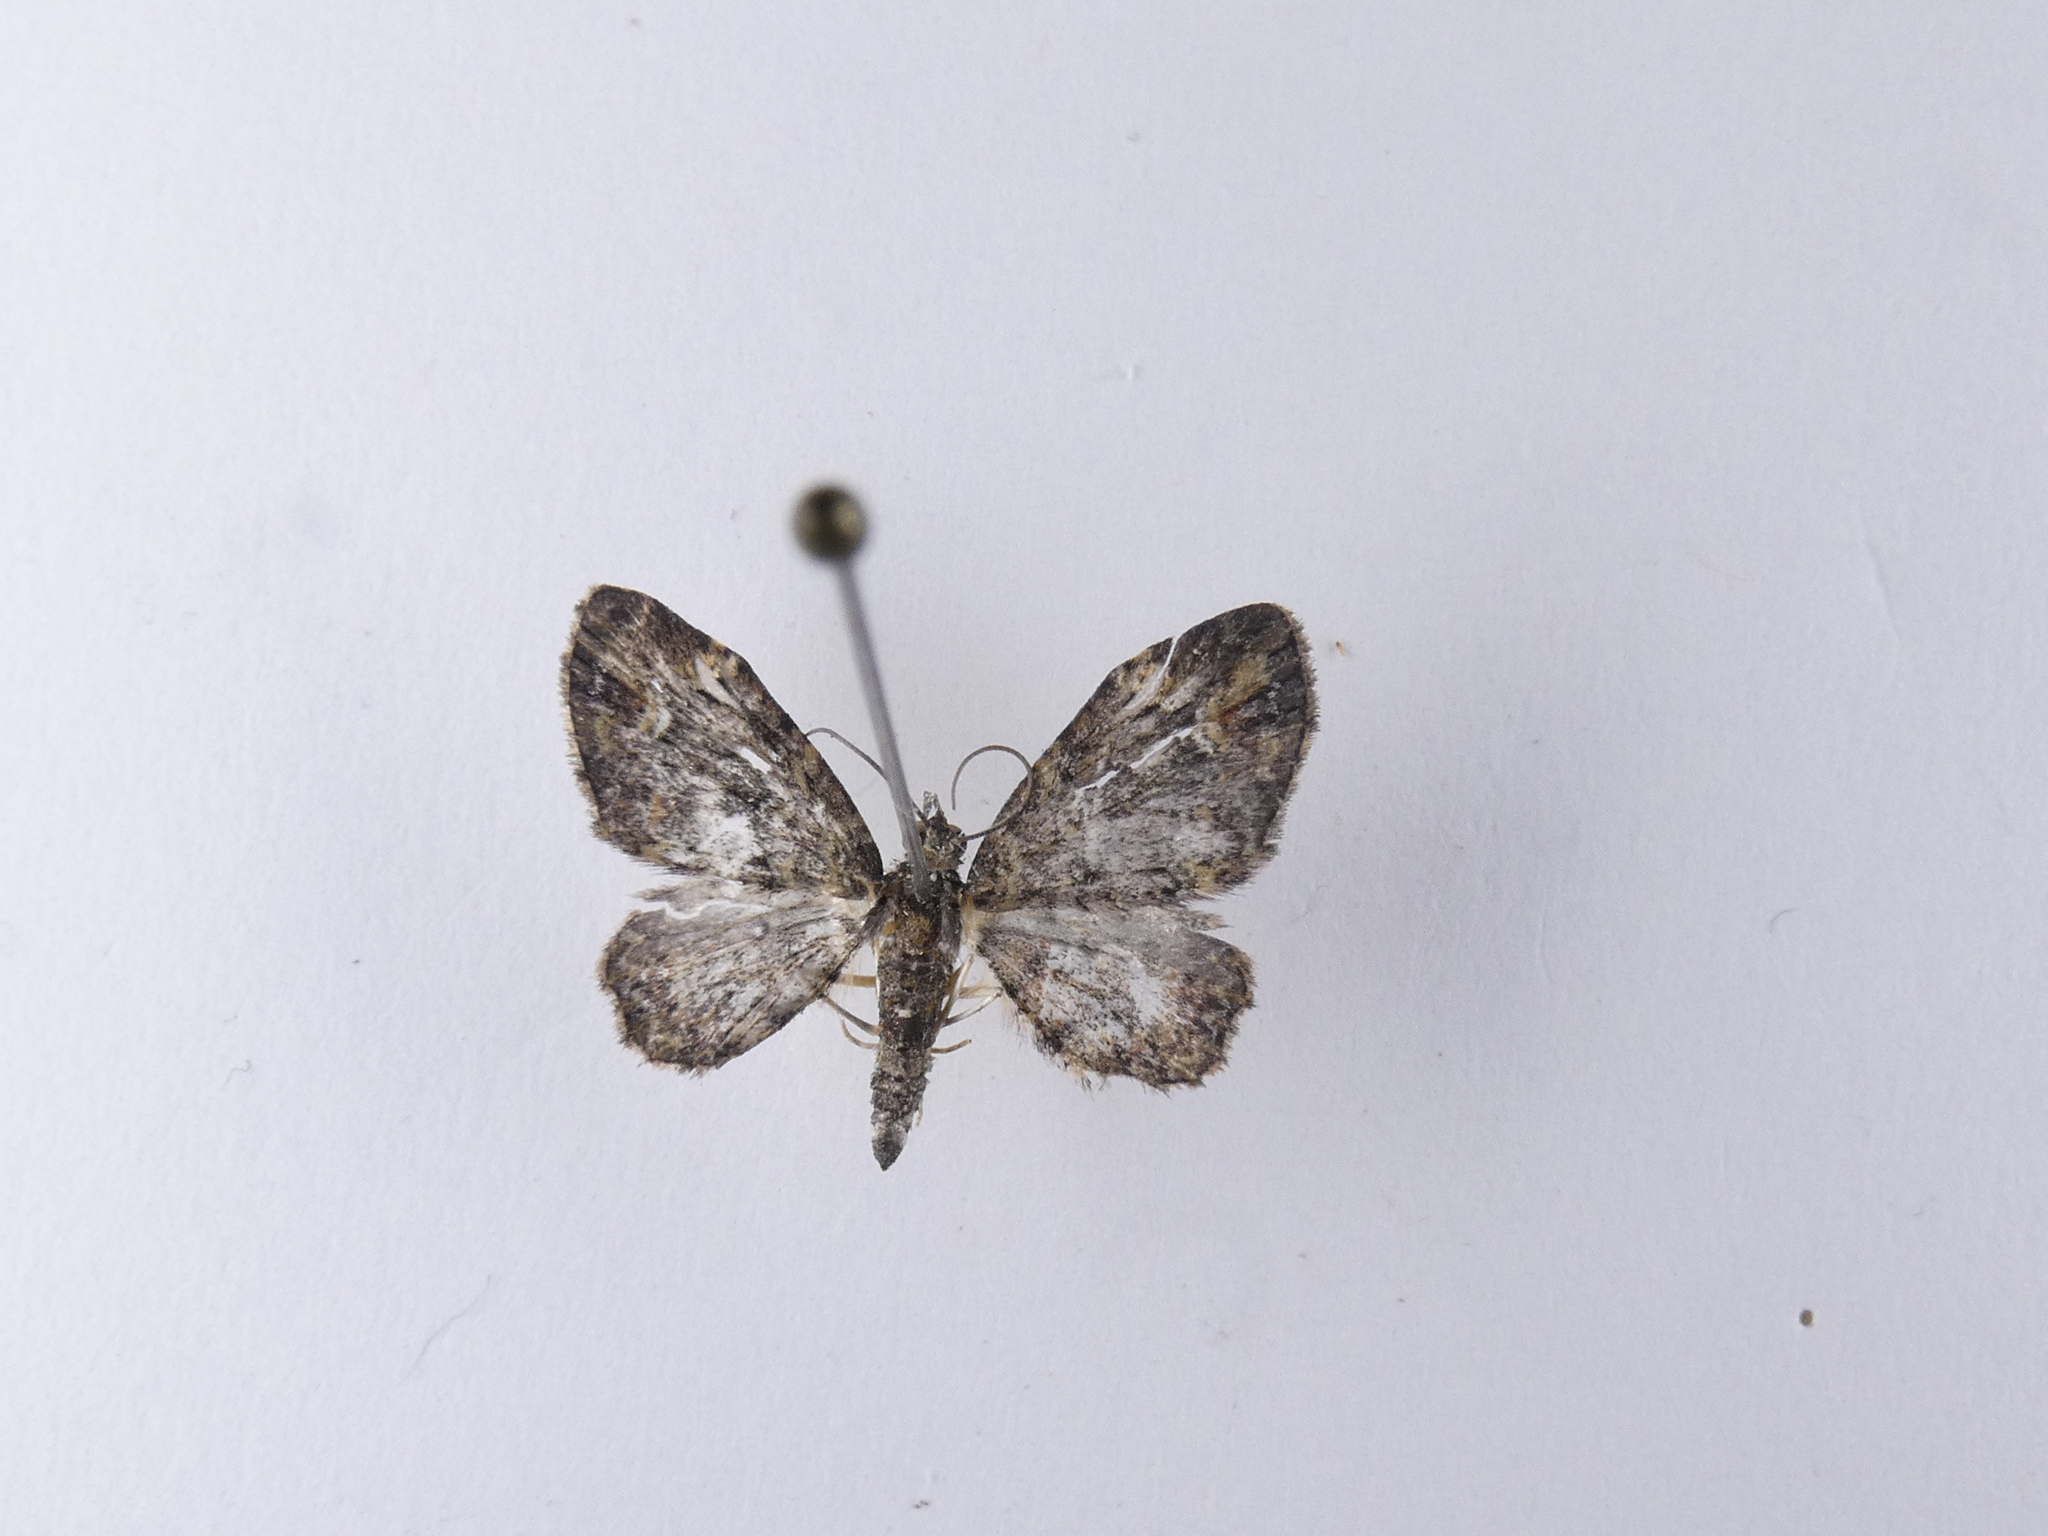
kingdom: Animalia
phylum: Arthropoda
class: Insecta
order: Lepidoptera
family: Geometridae
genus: Pasiphilodes
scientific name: Pasiphilodes testulata
